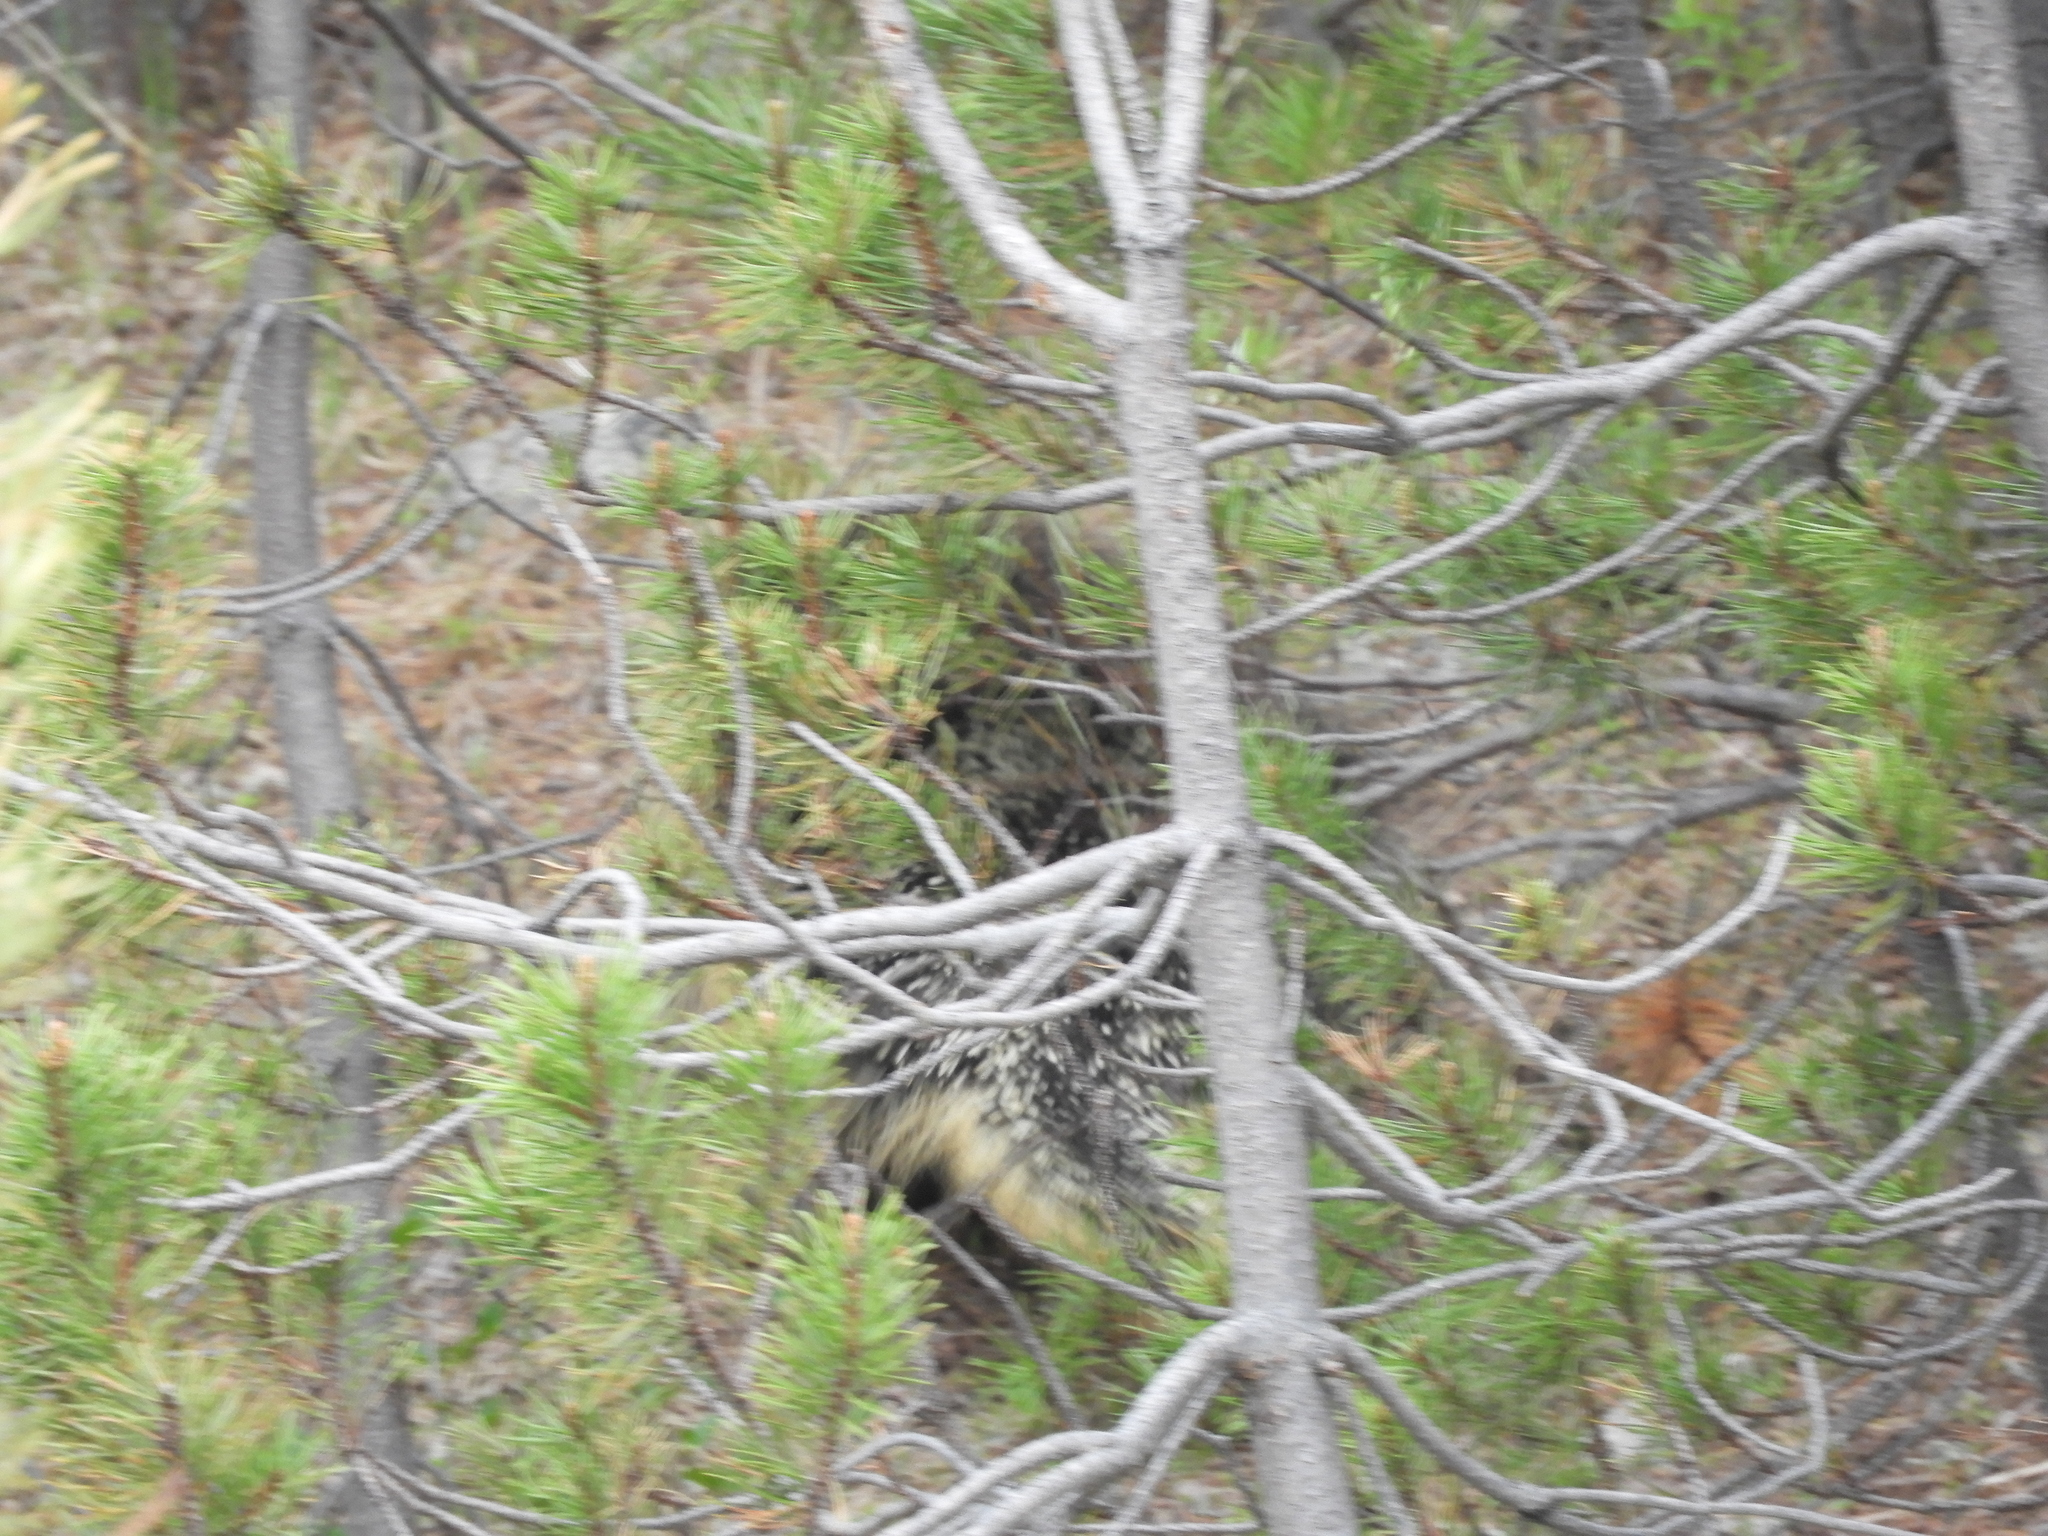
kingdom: Animalia
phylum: Chordata
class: Mammalia
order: Rodentia
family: Erethizontidae
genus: Erethizon
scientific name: Erethizon dorsatus
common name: North american porcupine
